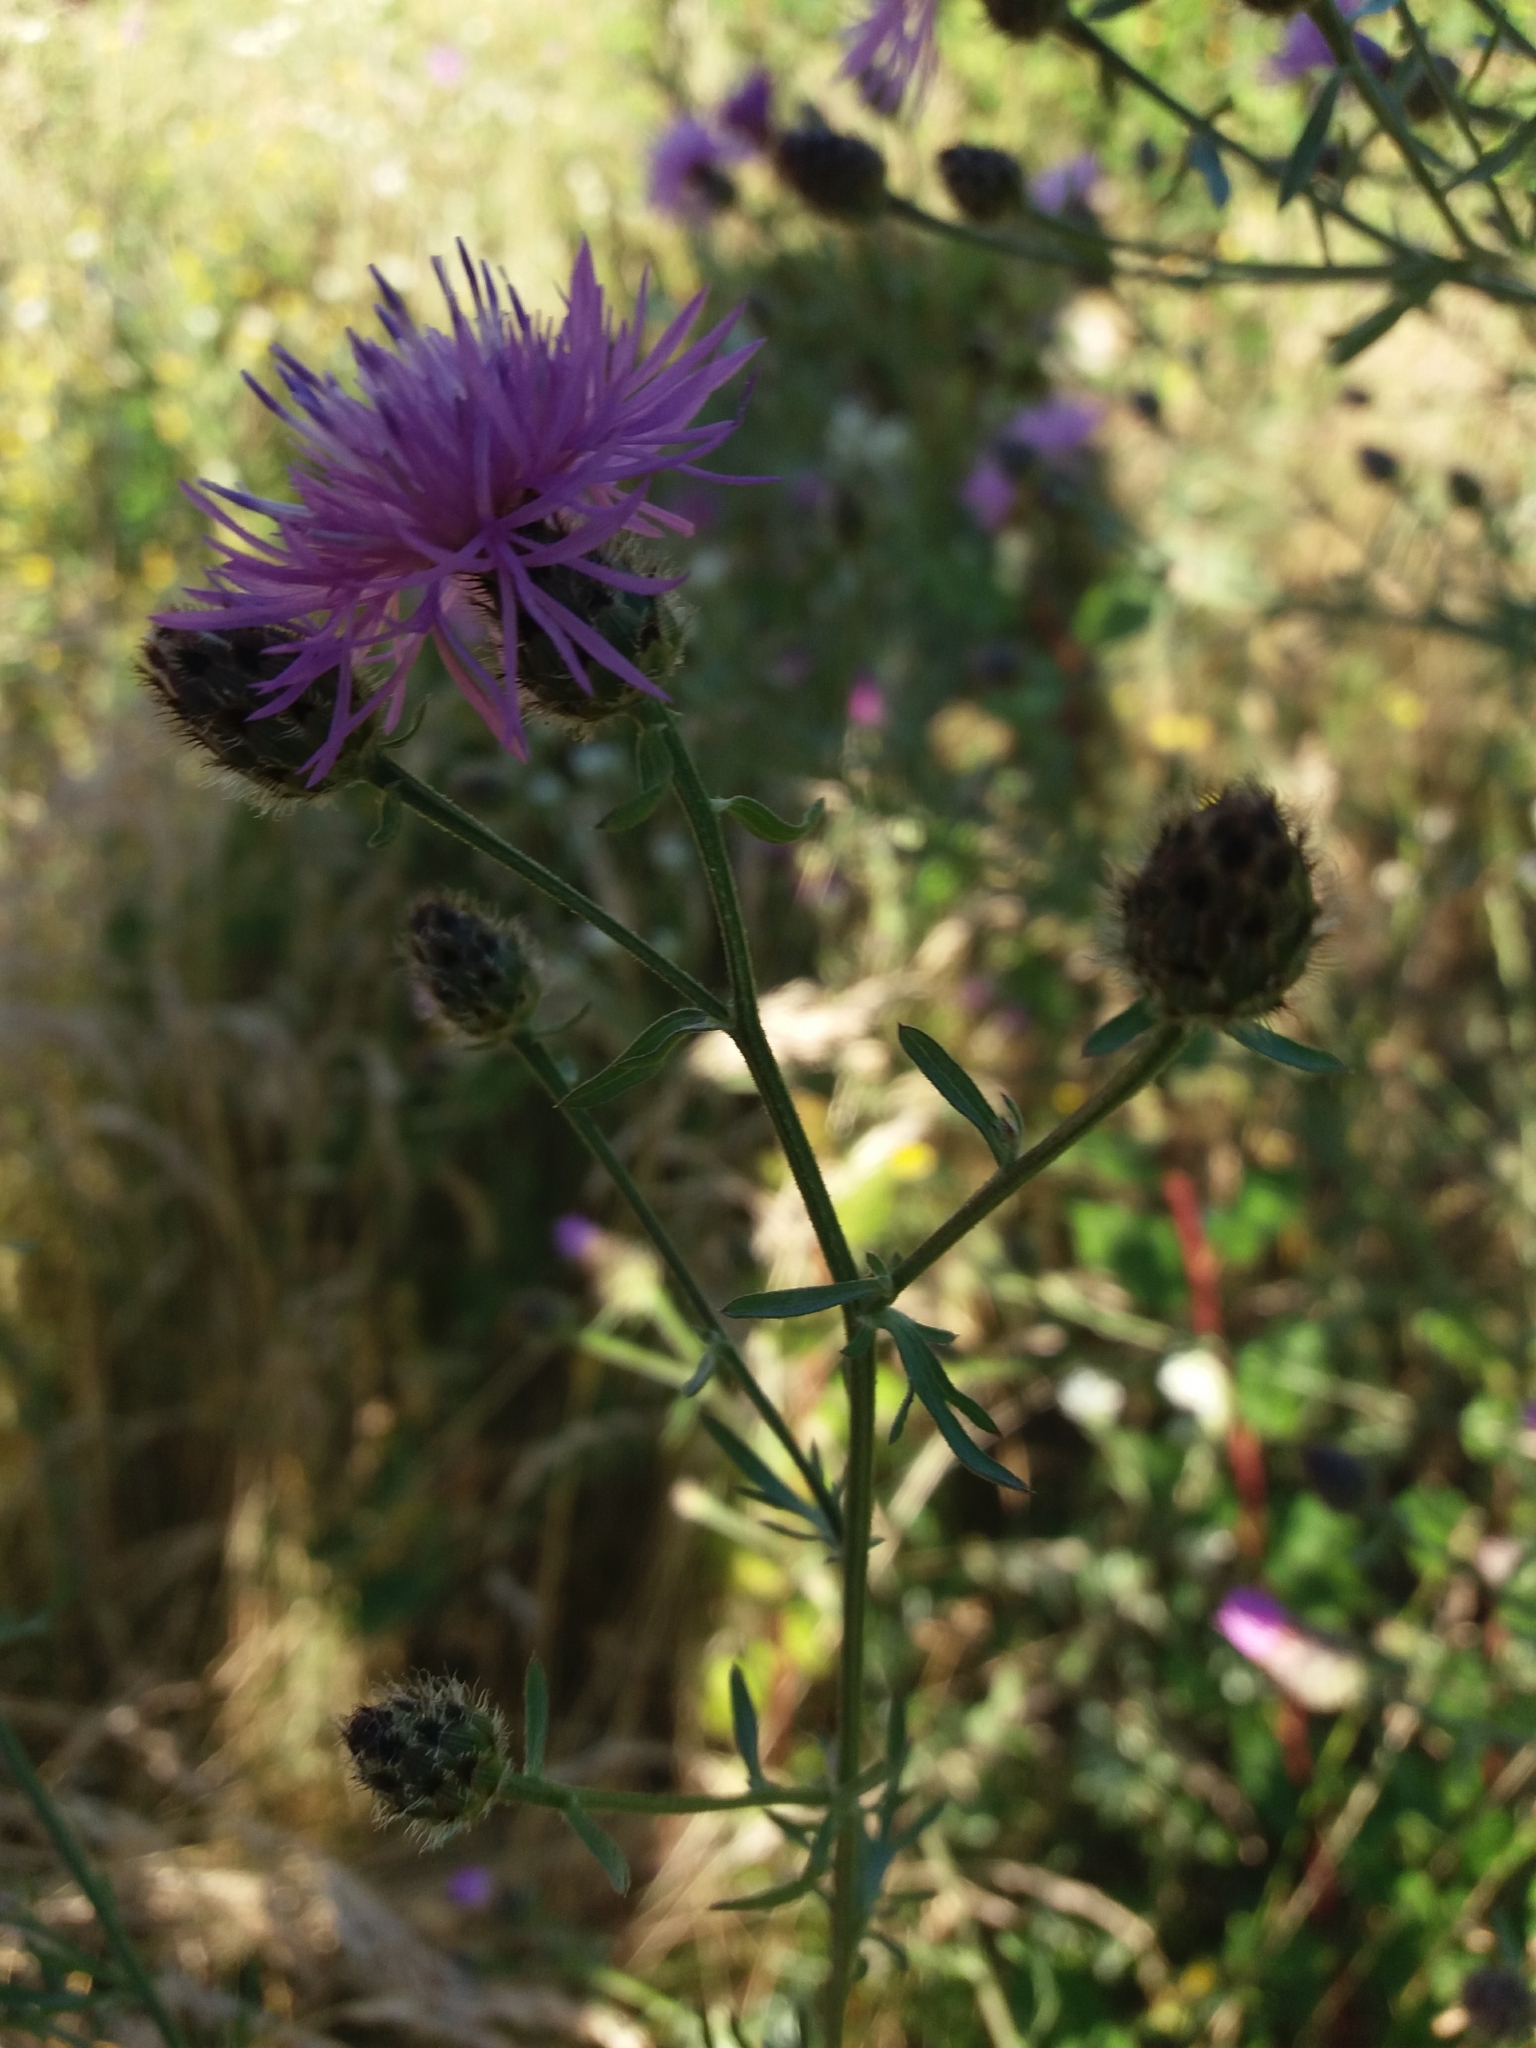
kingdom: Plantae
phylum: Tracheophyta
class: Magnoliopsida
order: Asterales
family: Asteraceae
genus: Centaurea
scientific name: Centaurea stoebe
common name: Spotted knapweed
